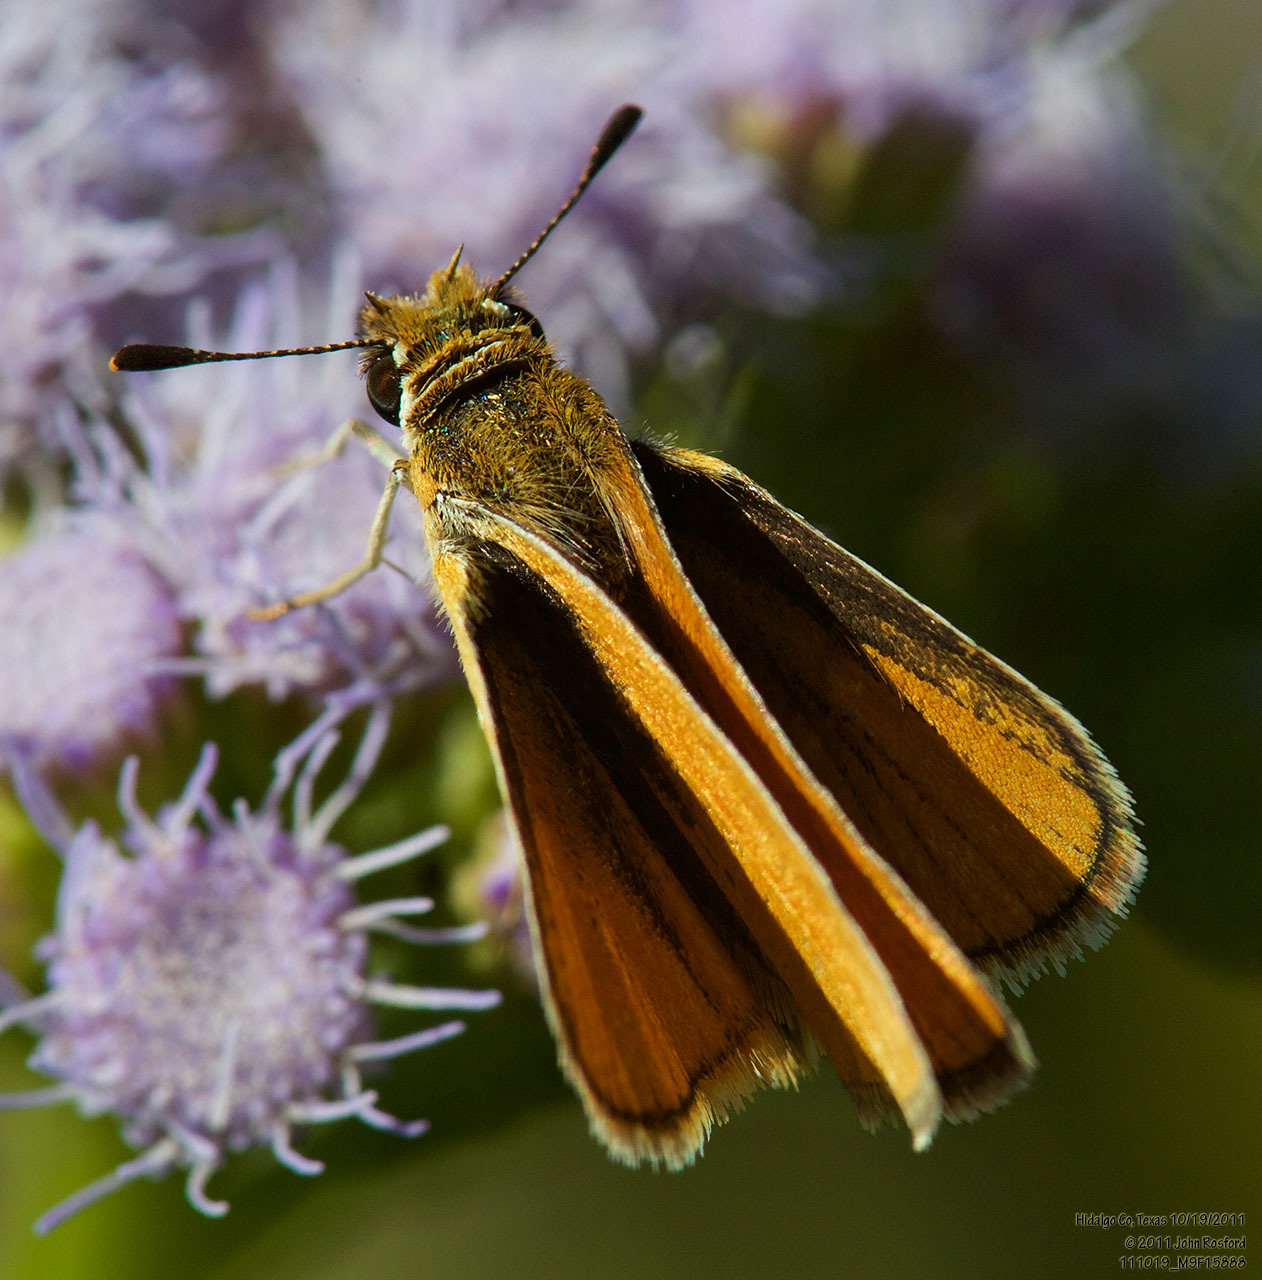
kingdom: Animalia
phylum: Arthropoda
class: Insecta
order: Lepidoptera
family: Hesperiidae
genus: Copaeodes
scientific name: Copaeodes minima
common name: Southern skipperling
